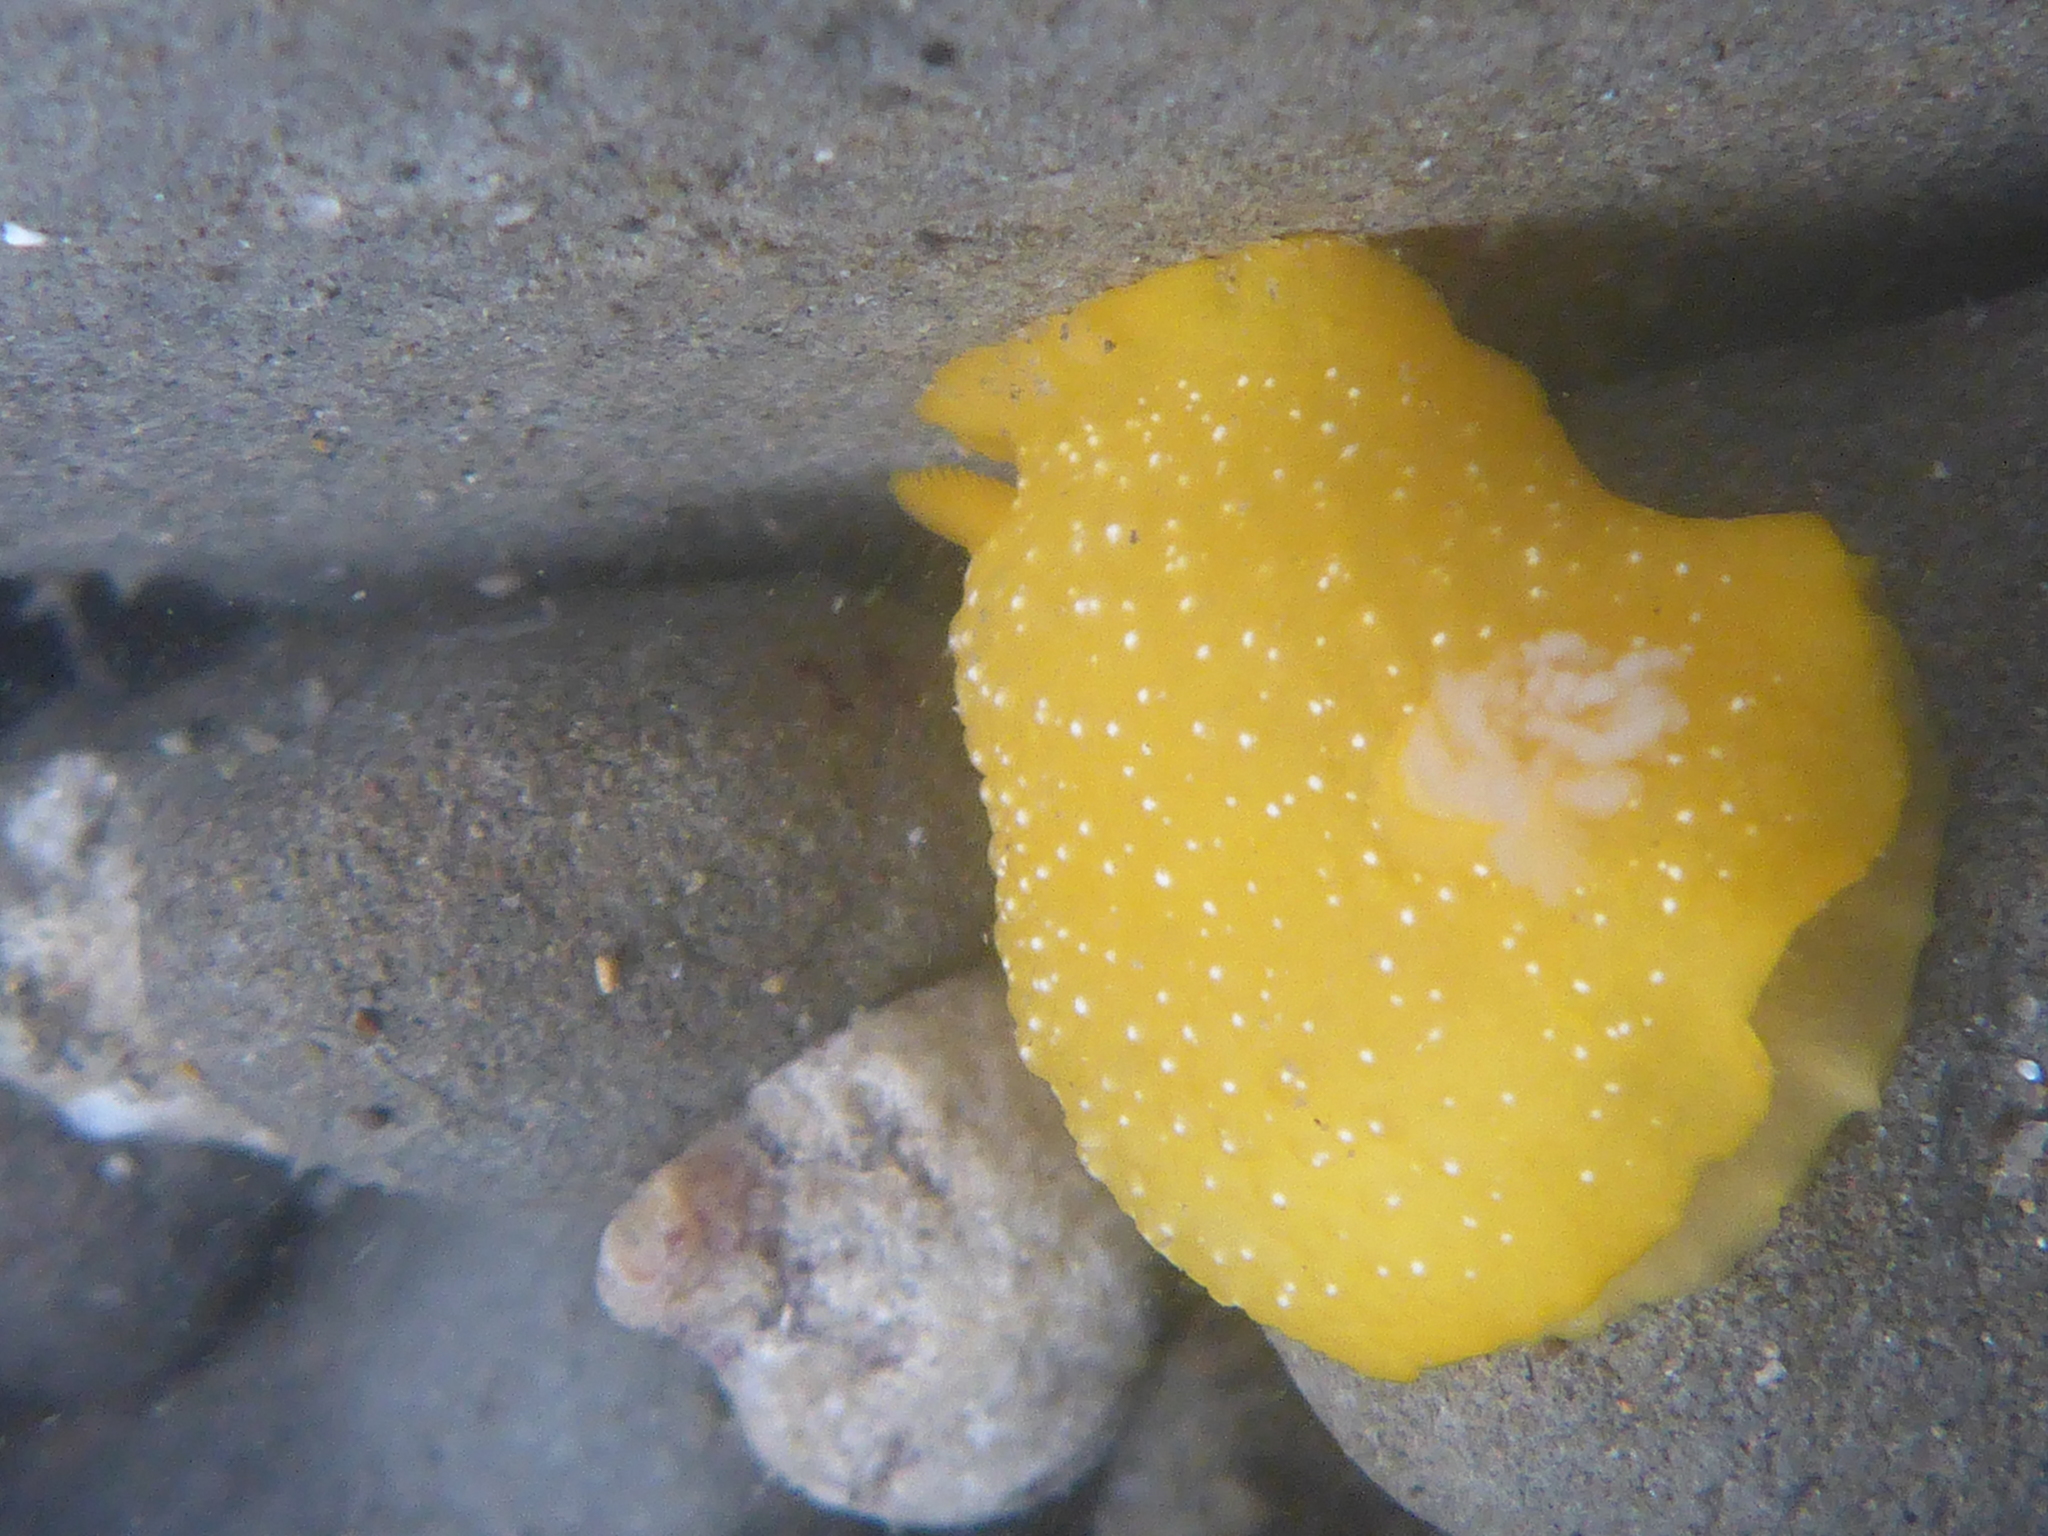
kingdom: Animalia
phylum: Mollusca
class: Gastropoda
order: Nudibranchia
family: Dendrodorididae
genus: Doriopsilla
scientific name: Doriopsilla fulva
